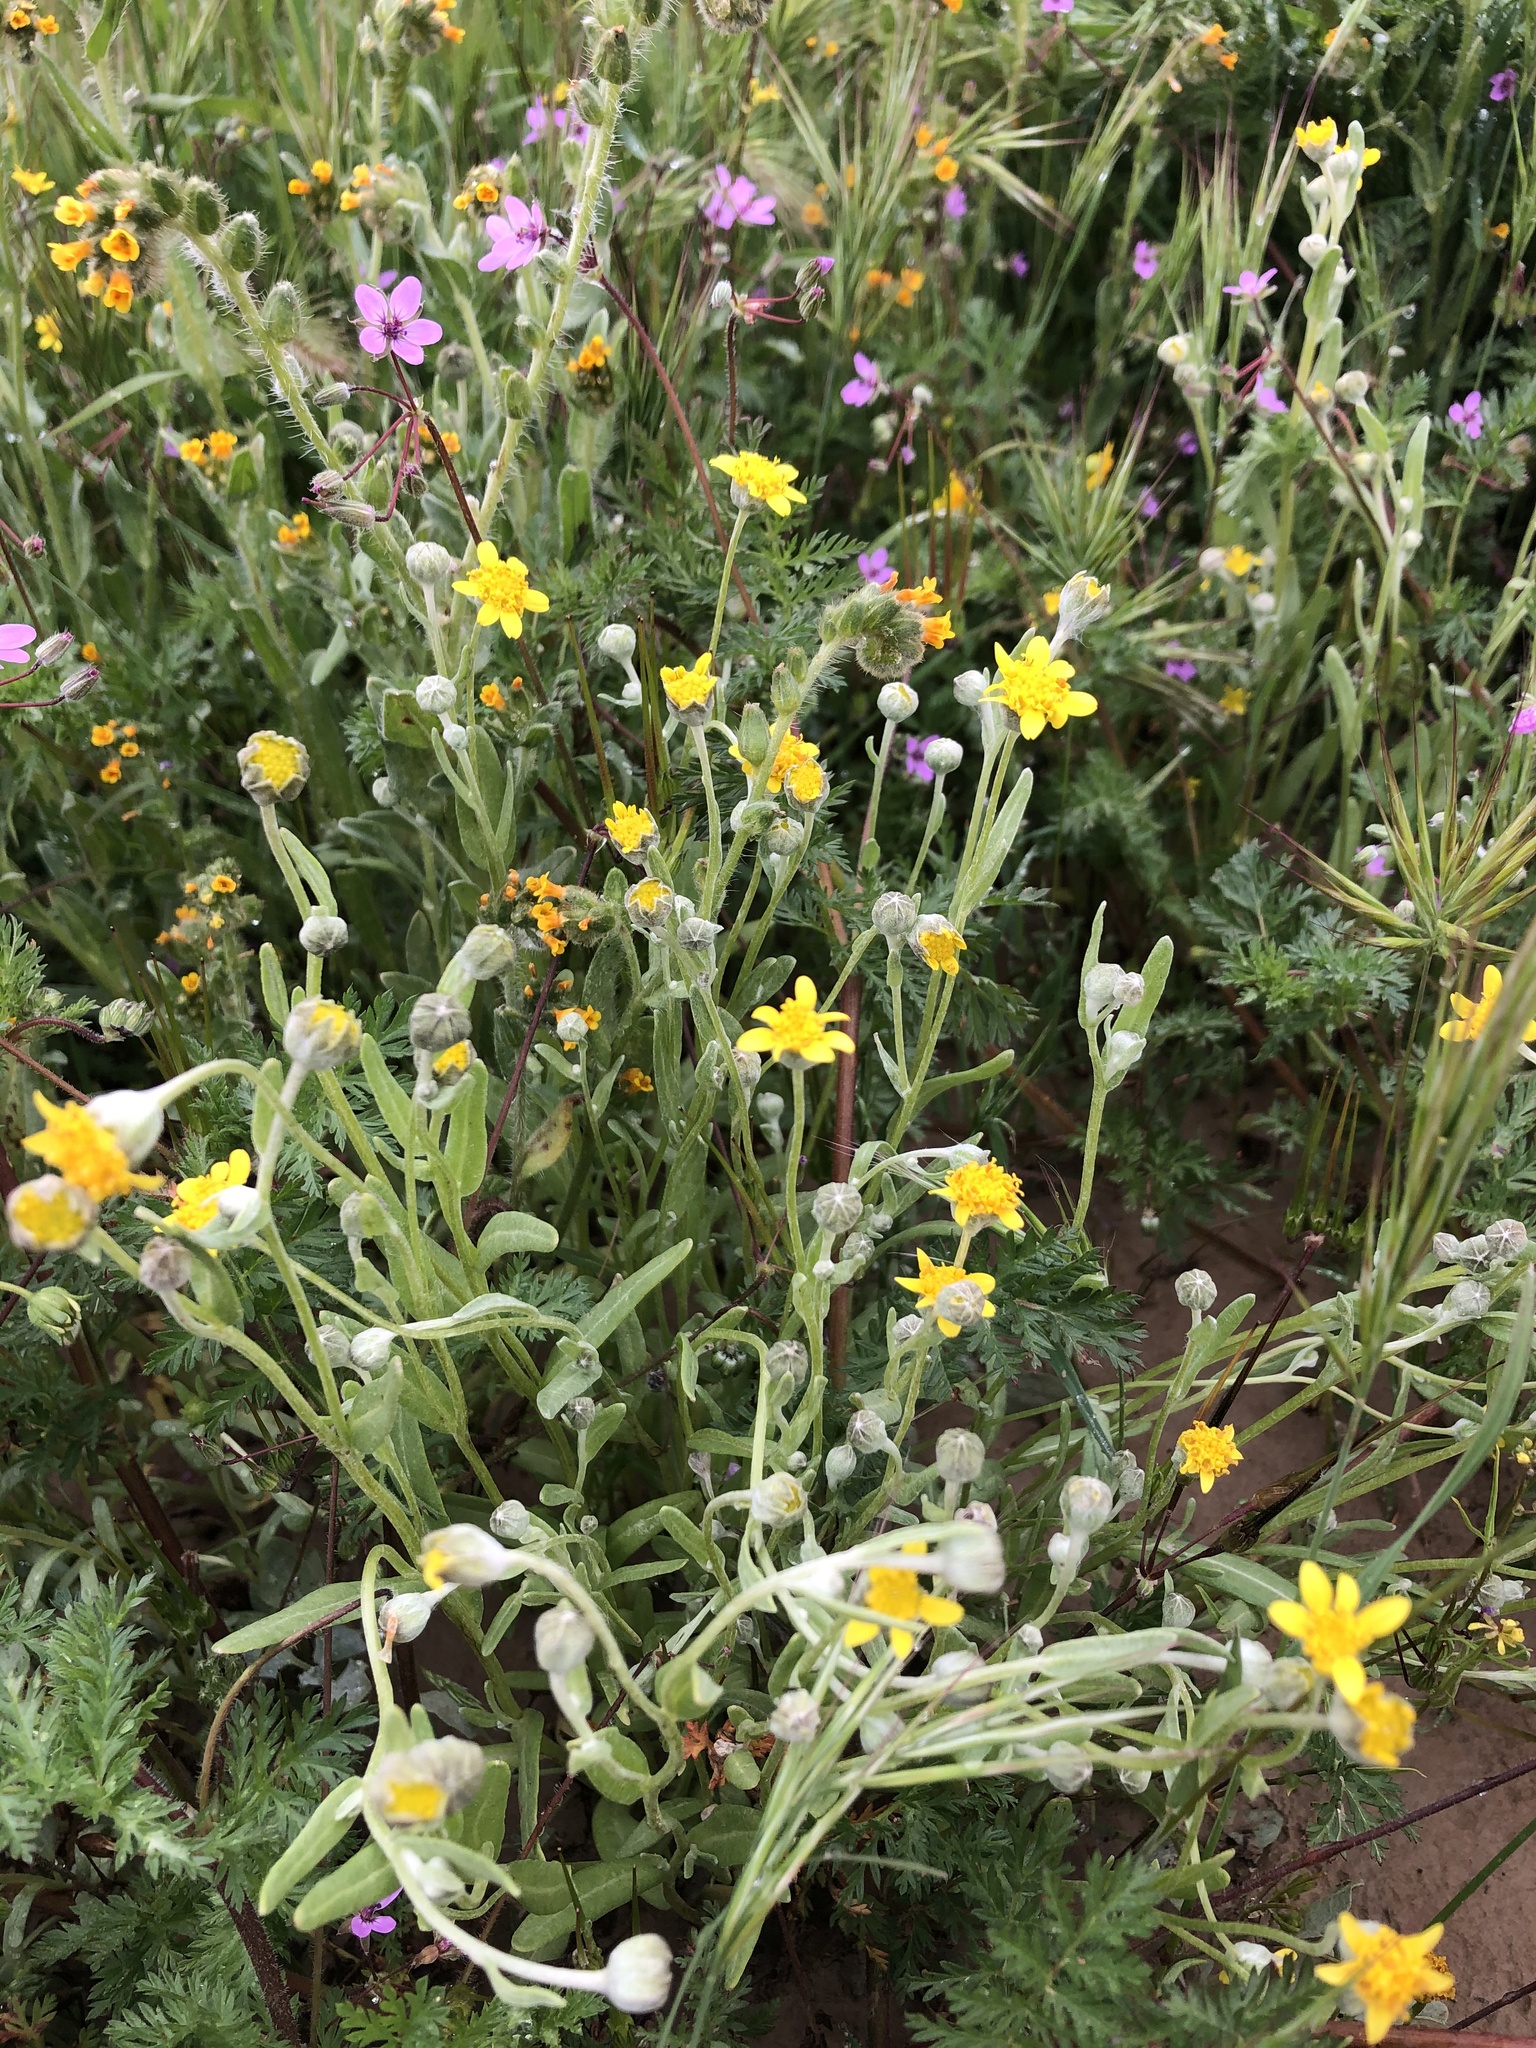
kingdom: Plantae
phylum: Tracheophyta
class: Magnoliopsida
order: Asterales
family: Asteraceae
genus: Monolopia
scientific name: Monolopia stricta
